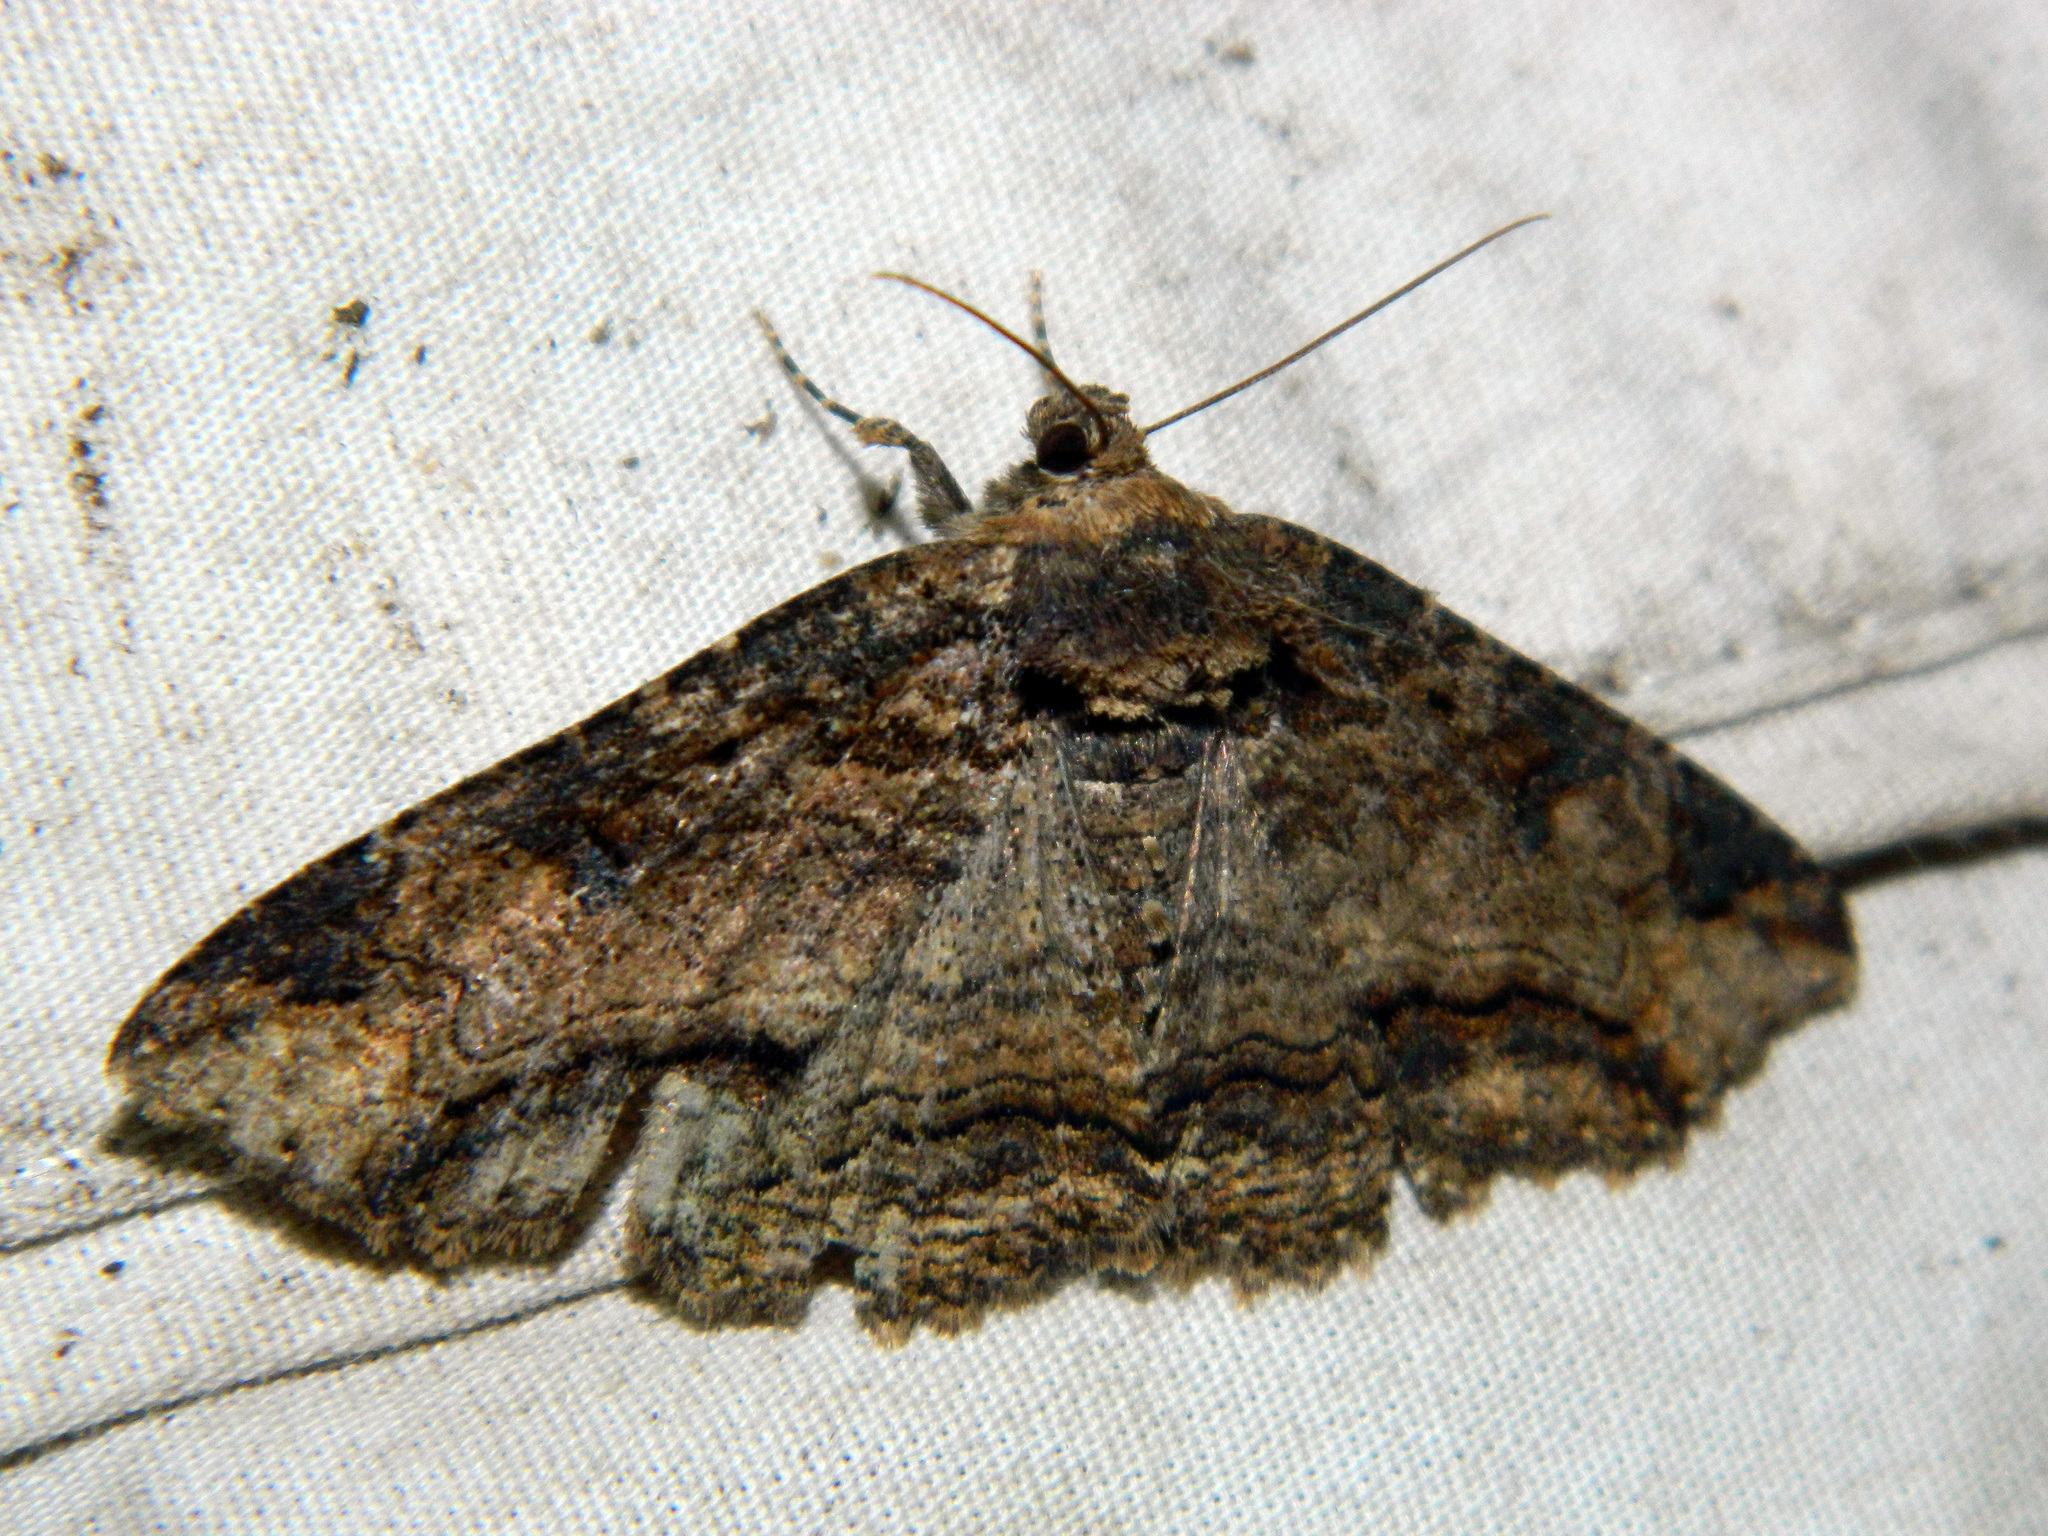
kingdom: Animalia
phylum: Arthropoda
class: Insecta
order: Lepidoptera
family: Erebidae
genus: Zale
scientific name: Zale minerea
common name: Colorful zale moth
